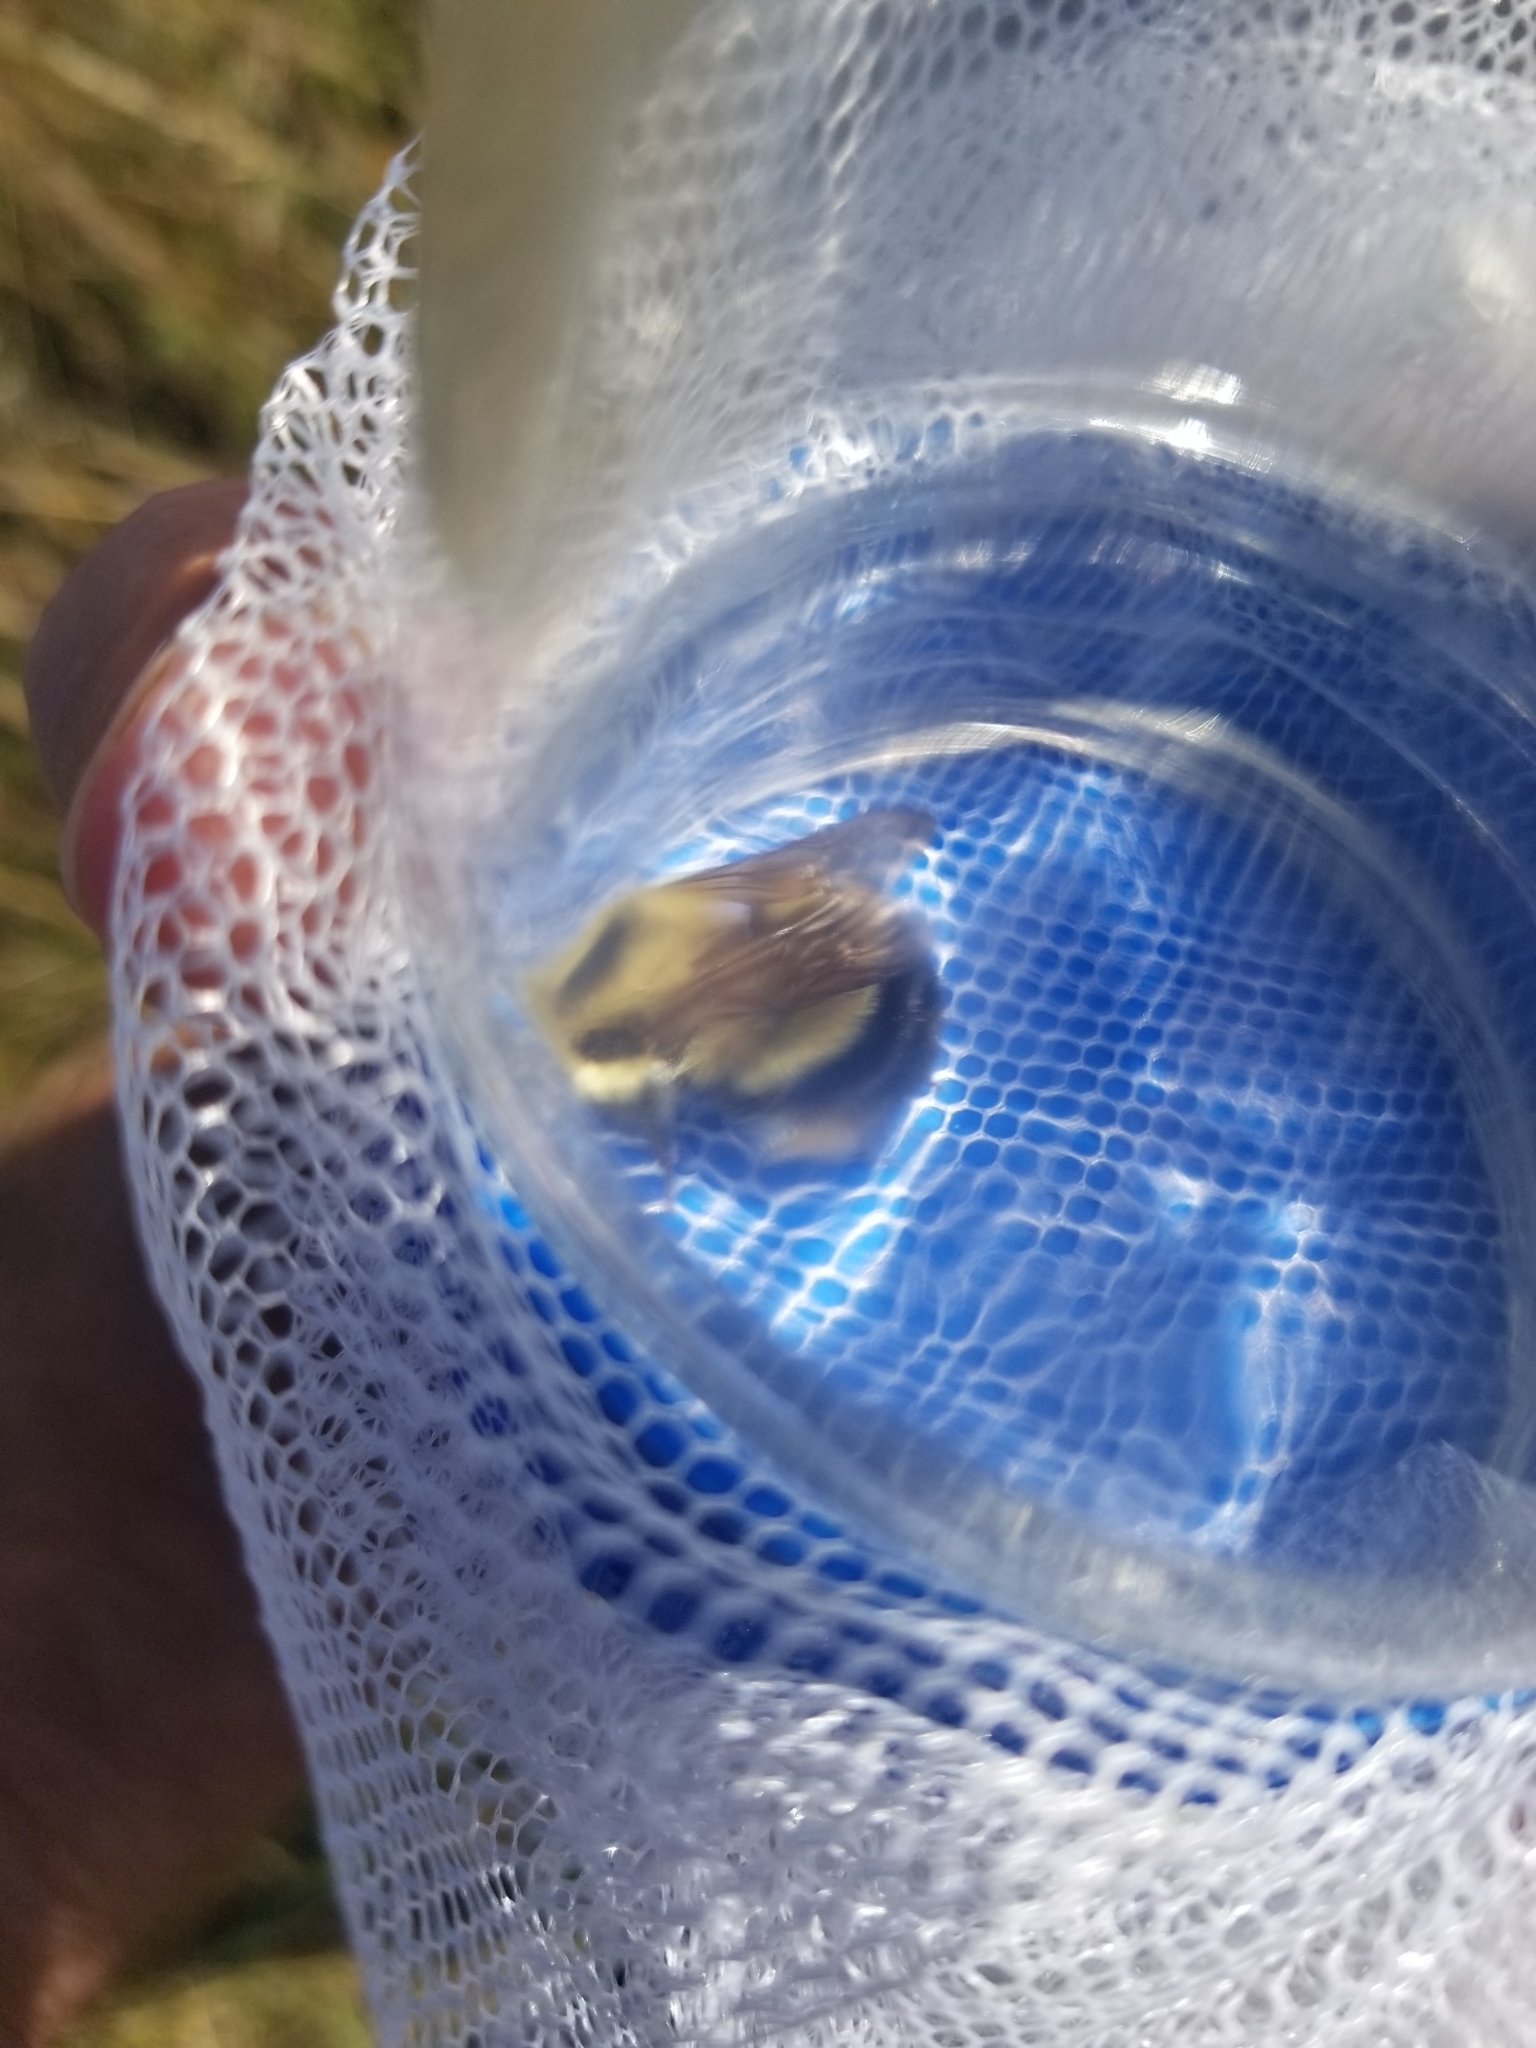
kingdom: Animalia
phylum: Arthropoda
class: Insecta
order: Hymenoptera
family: Apidae
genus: Bombus
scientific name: Bombus vagans
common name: Half-black bumble bee
